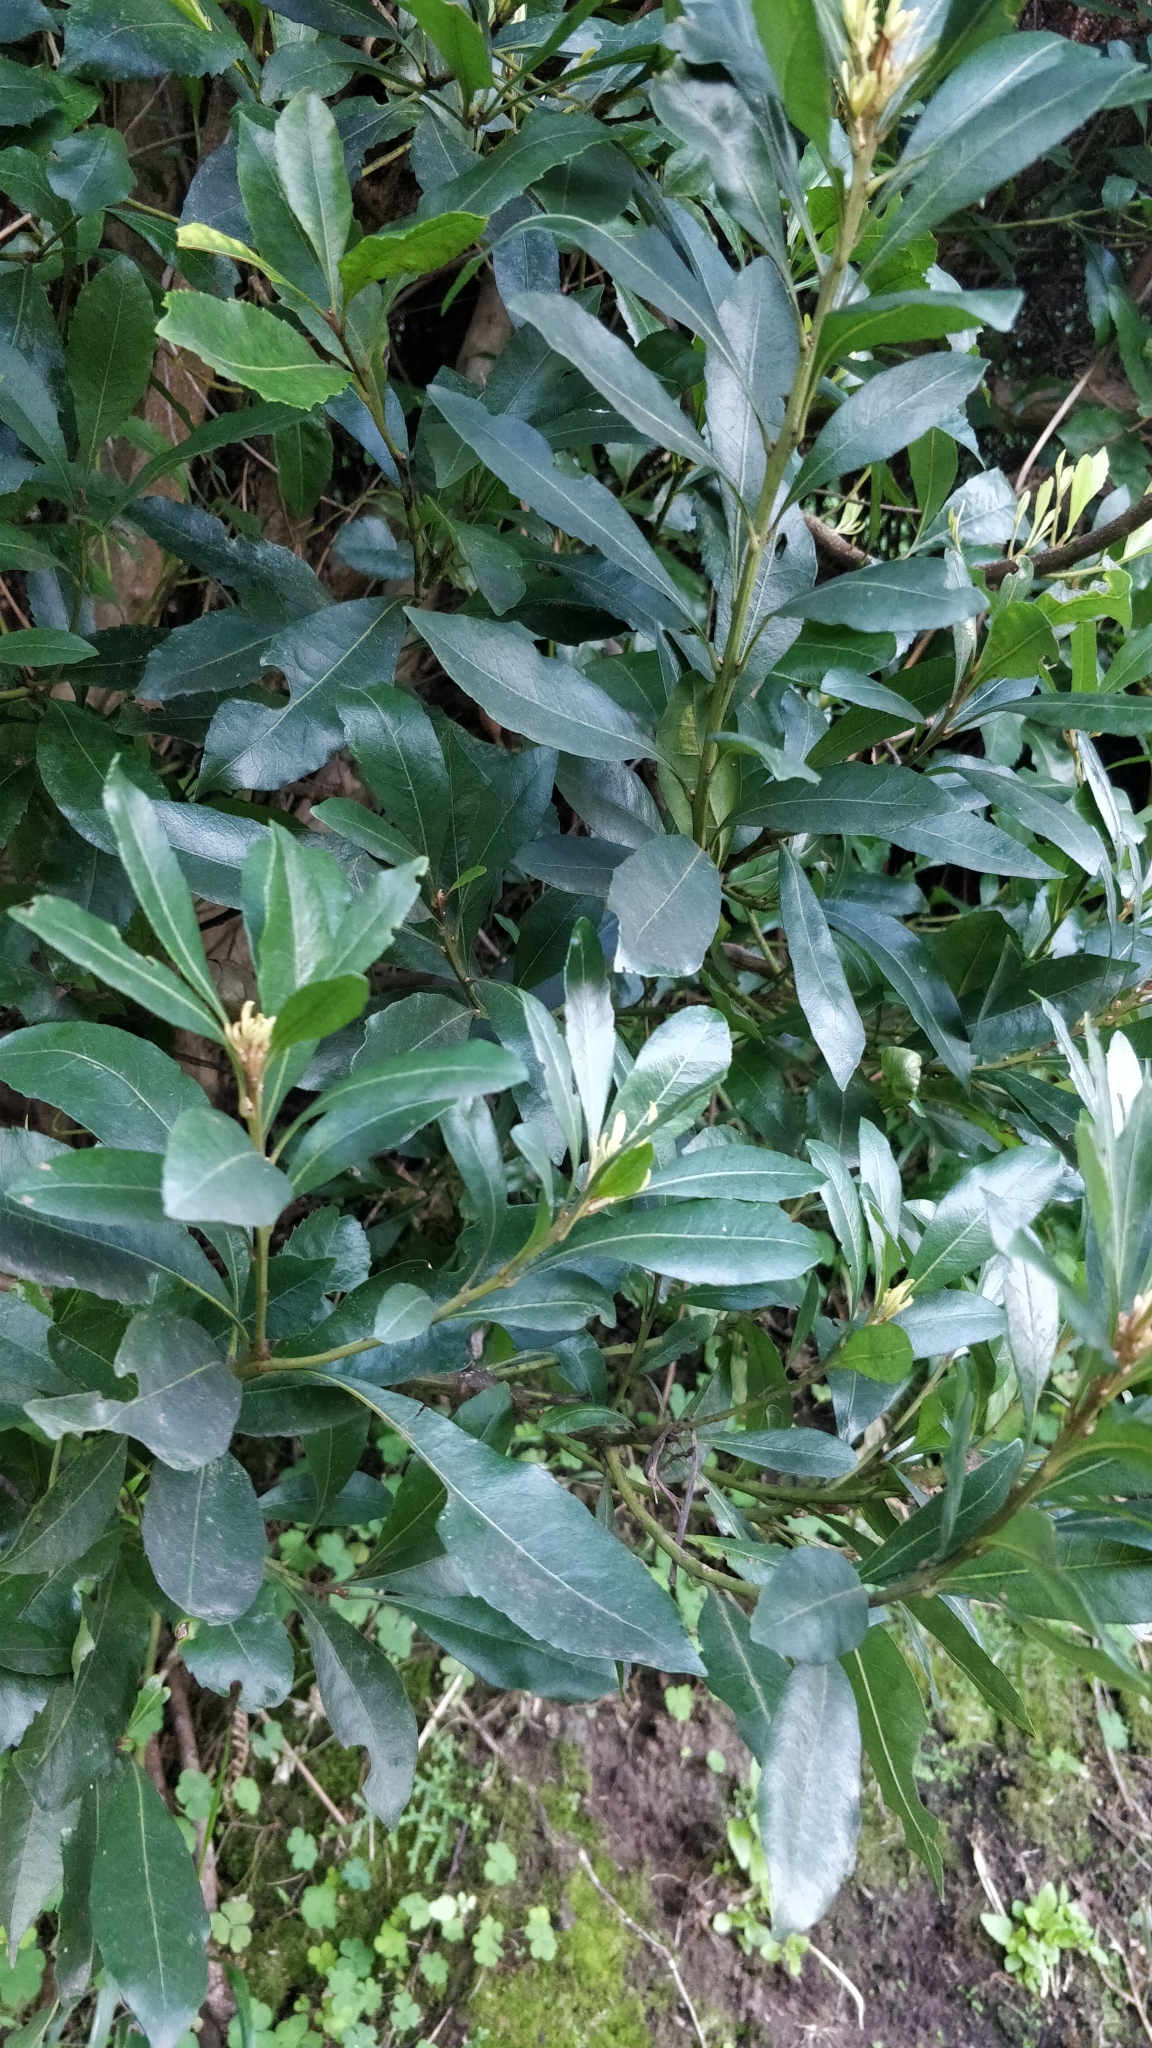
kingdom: Plantae
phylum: Tracheophyta
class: Magnoliopsida
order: Fagales
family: Myricaceae
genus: Morella
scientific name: Morella faya
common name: Firetree
